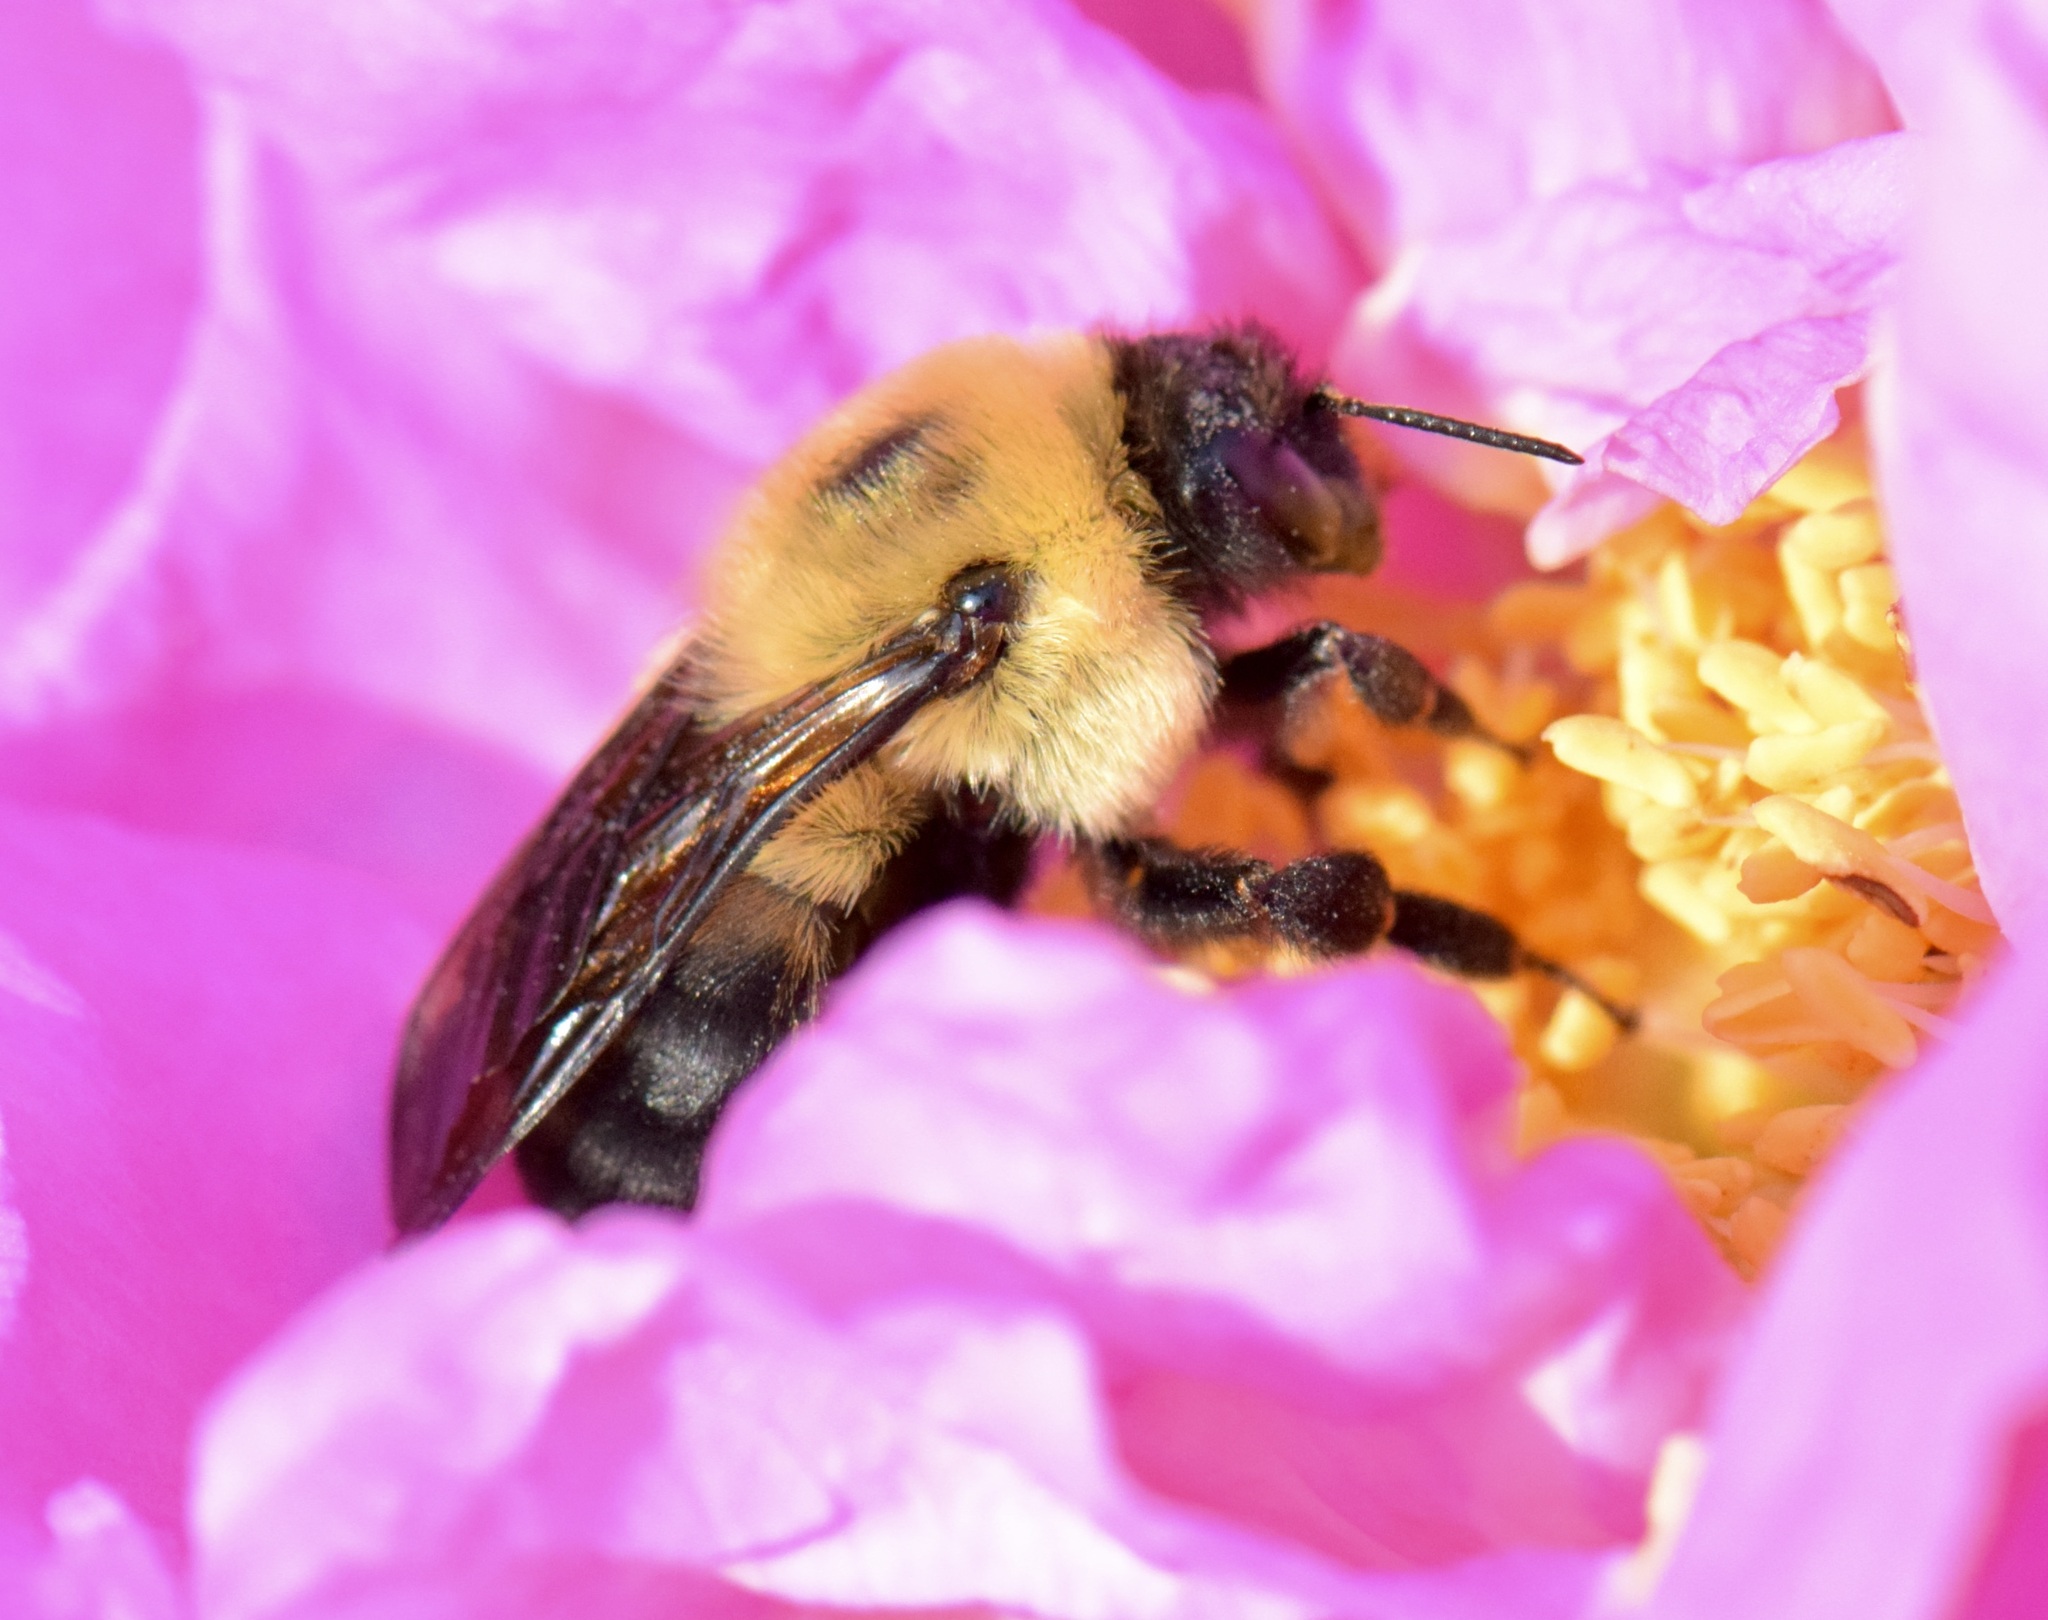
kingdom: Animalia
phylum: Arthropoda
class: Insecta
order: Hymenoptera
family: Apidae
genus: Bombus
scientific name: Bombus griseocollis
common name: Brown-belted bumble bee
